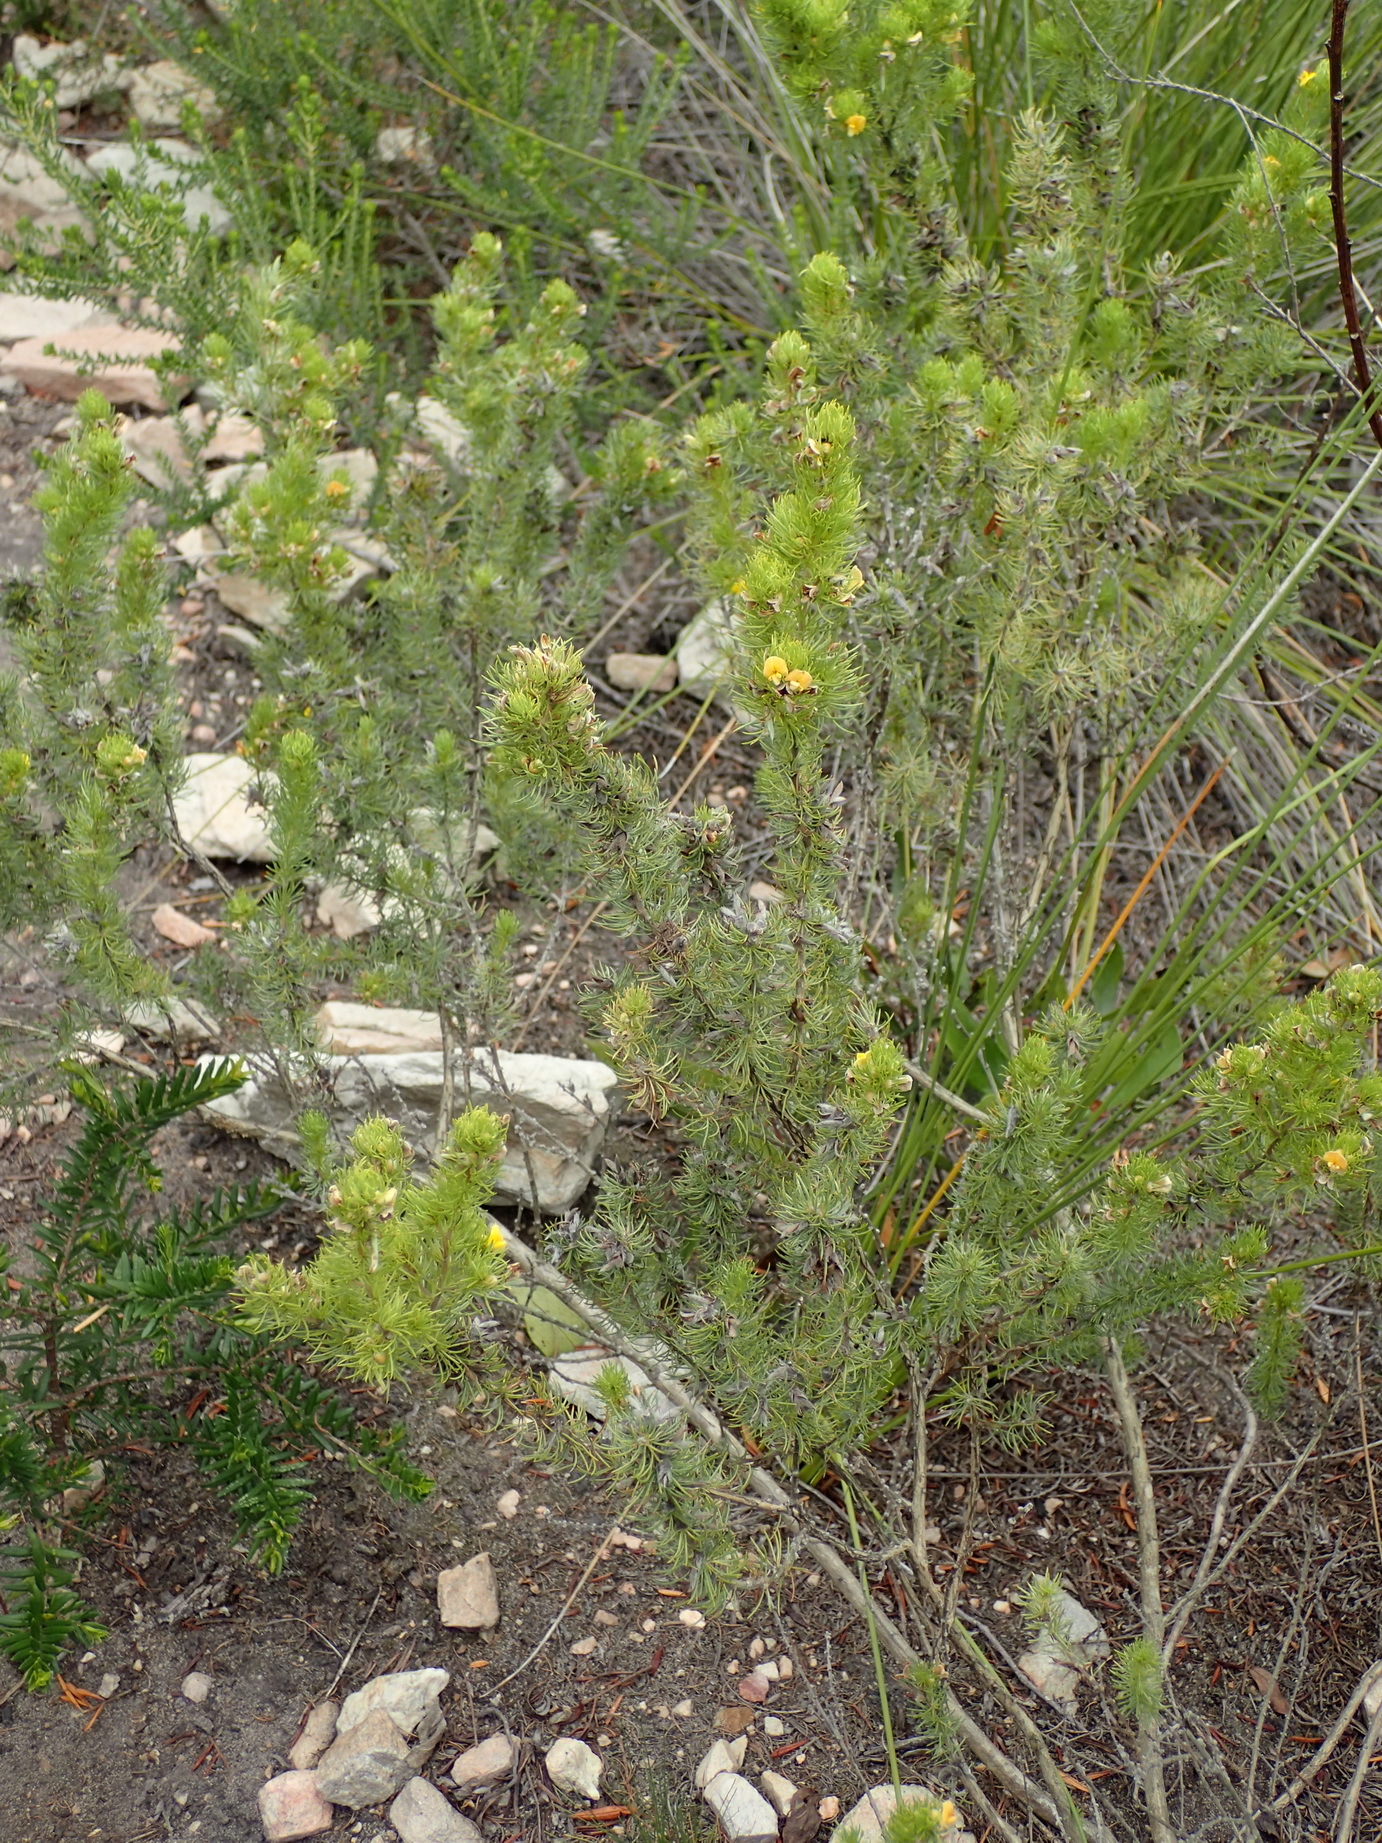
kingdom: Plantae
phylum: Tracheophyta
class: Magnoliopsida
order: Fabales
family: Fabaceae
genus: Aspalathus
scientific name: Aspalathus setacea
